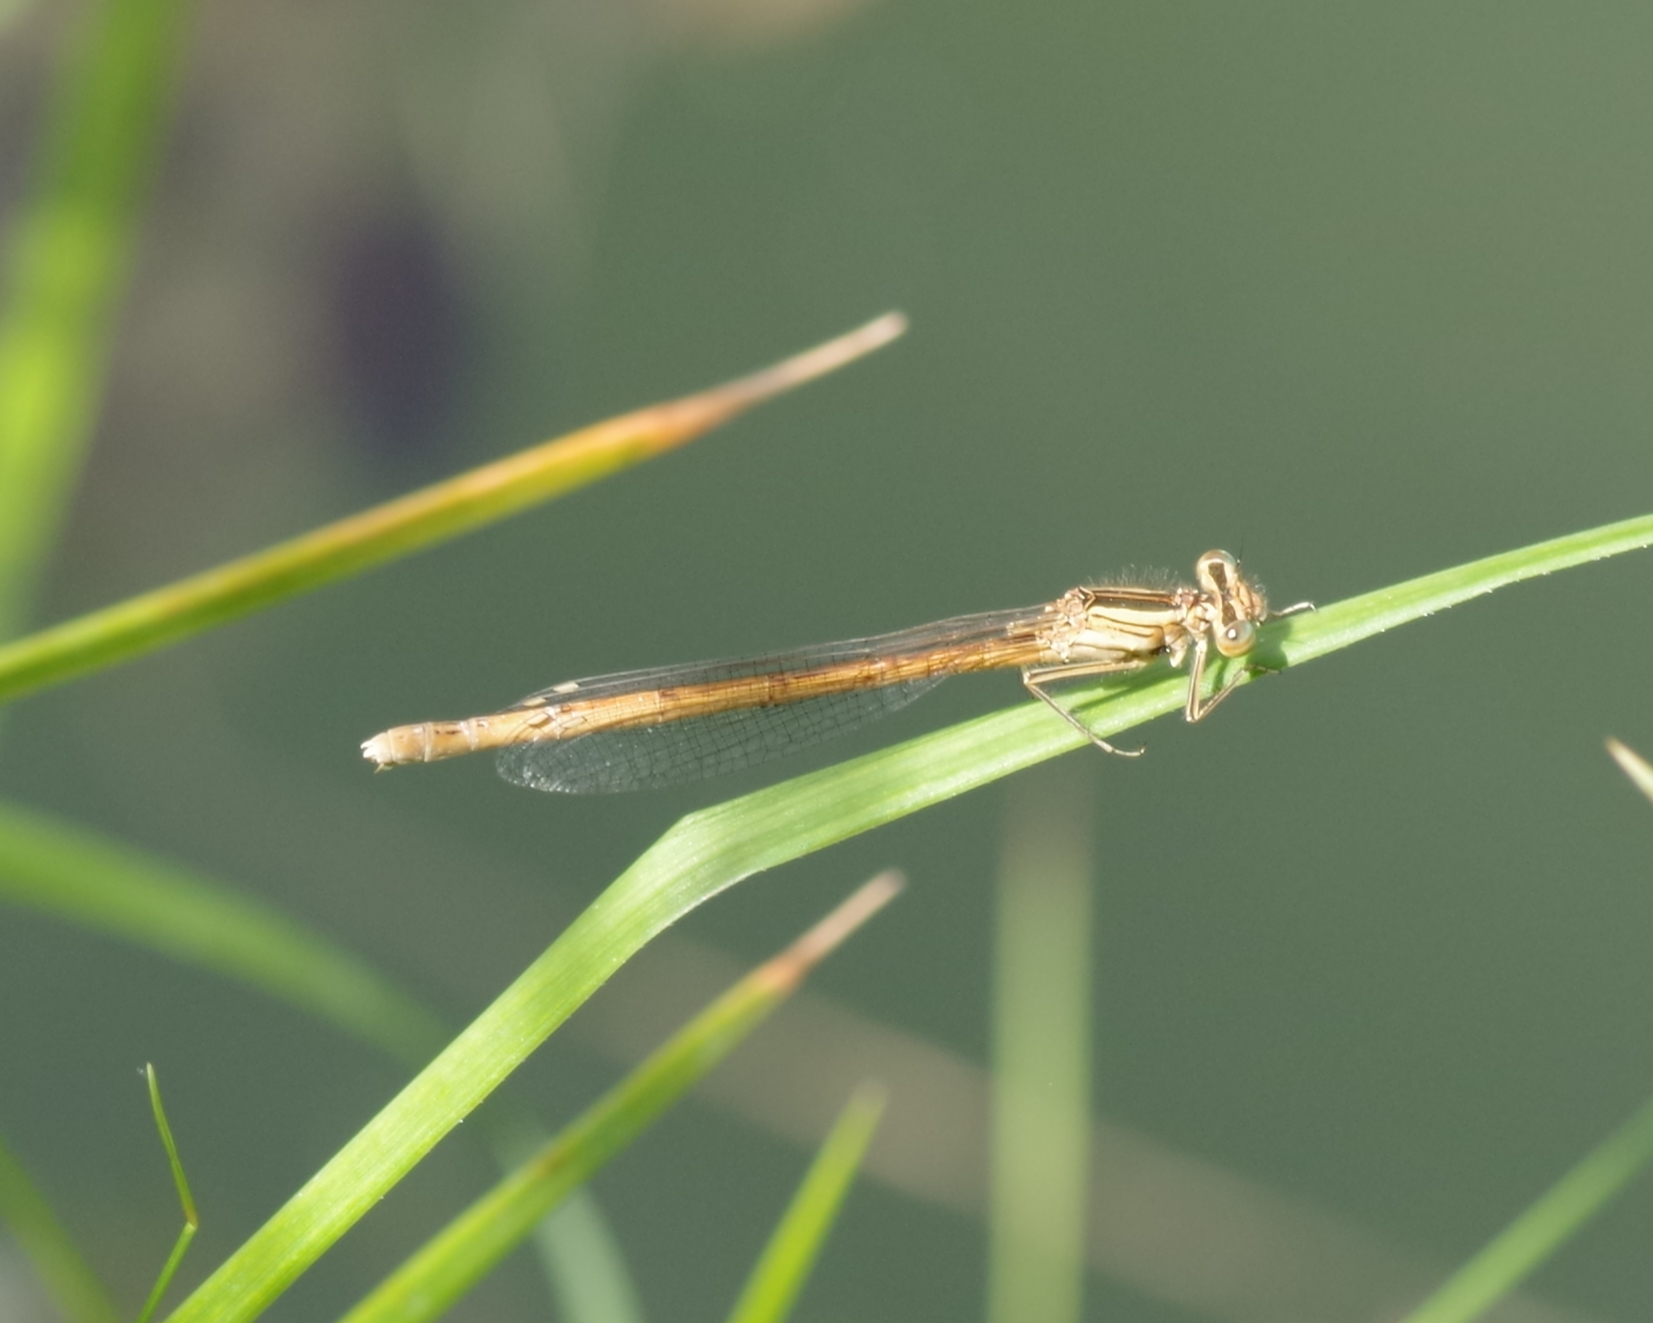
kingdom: Animalia
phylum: Arthropoda
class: Insecta
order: Odonata
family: Platycnemididae
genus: Platycnemis
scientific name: Platycnemis acutipennis
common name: Orange featherleg
